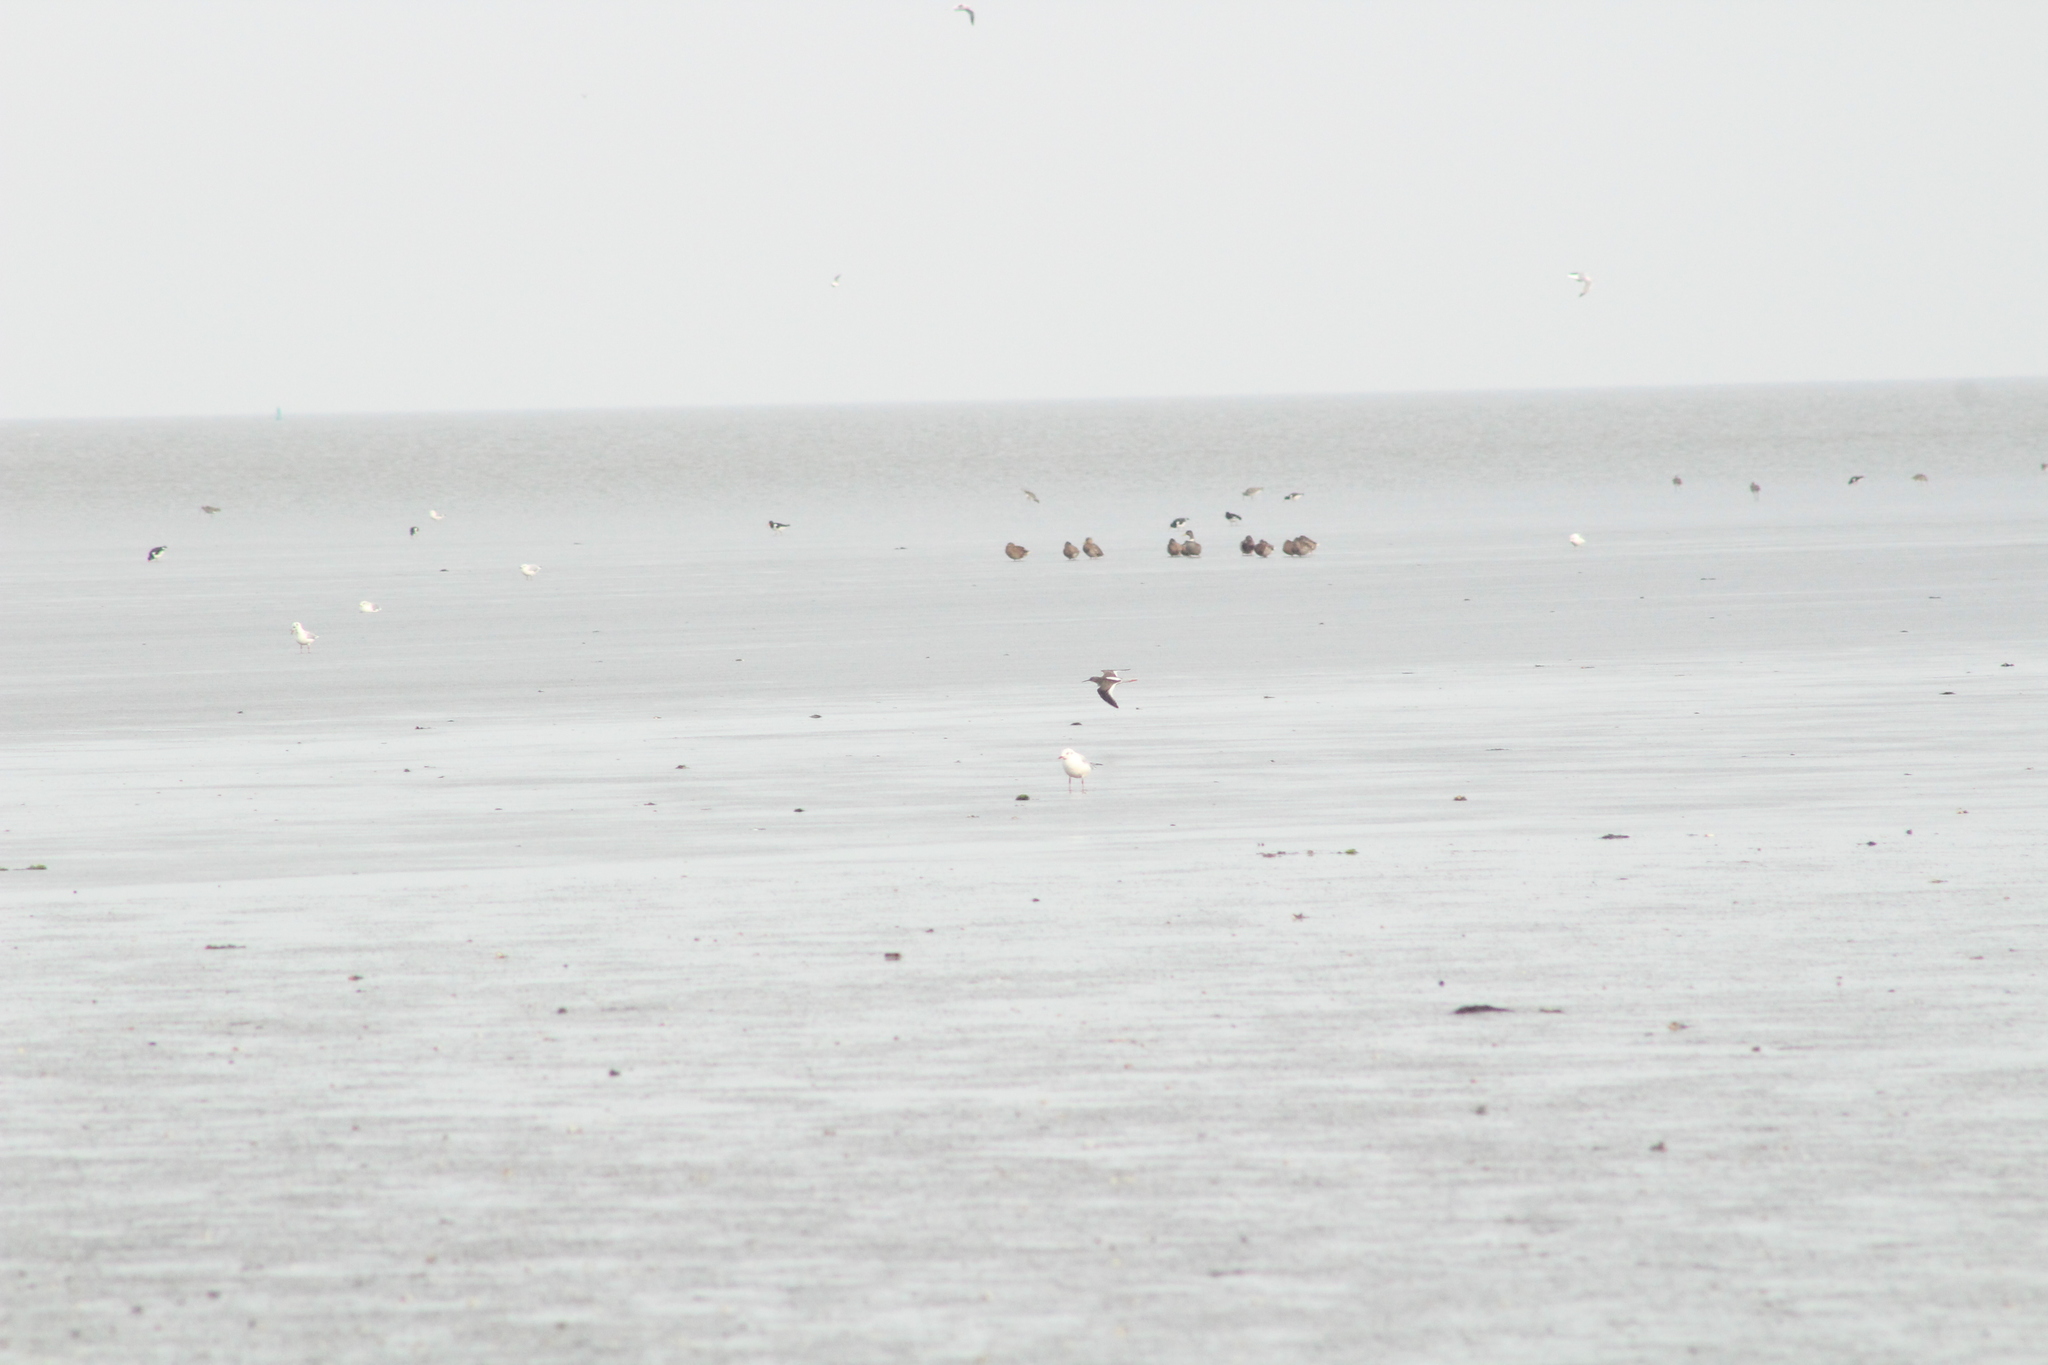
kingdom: Animalia
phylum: Chordata
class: Aves
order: Charadriiformes
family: Scolopacidae
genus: Tringa
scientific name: Tringa totanus
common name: Common redshank
